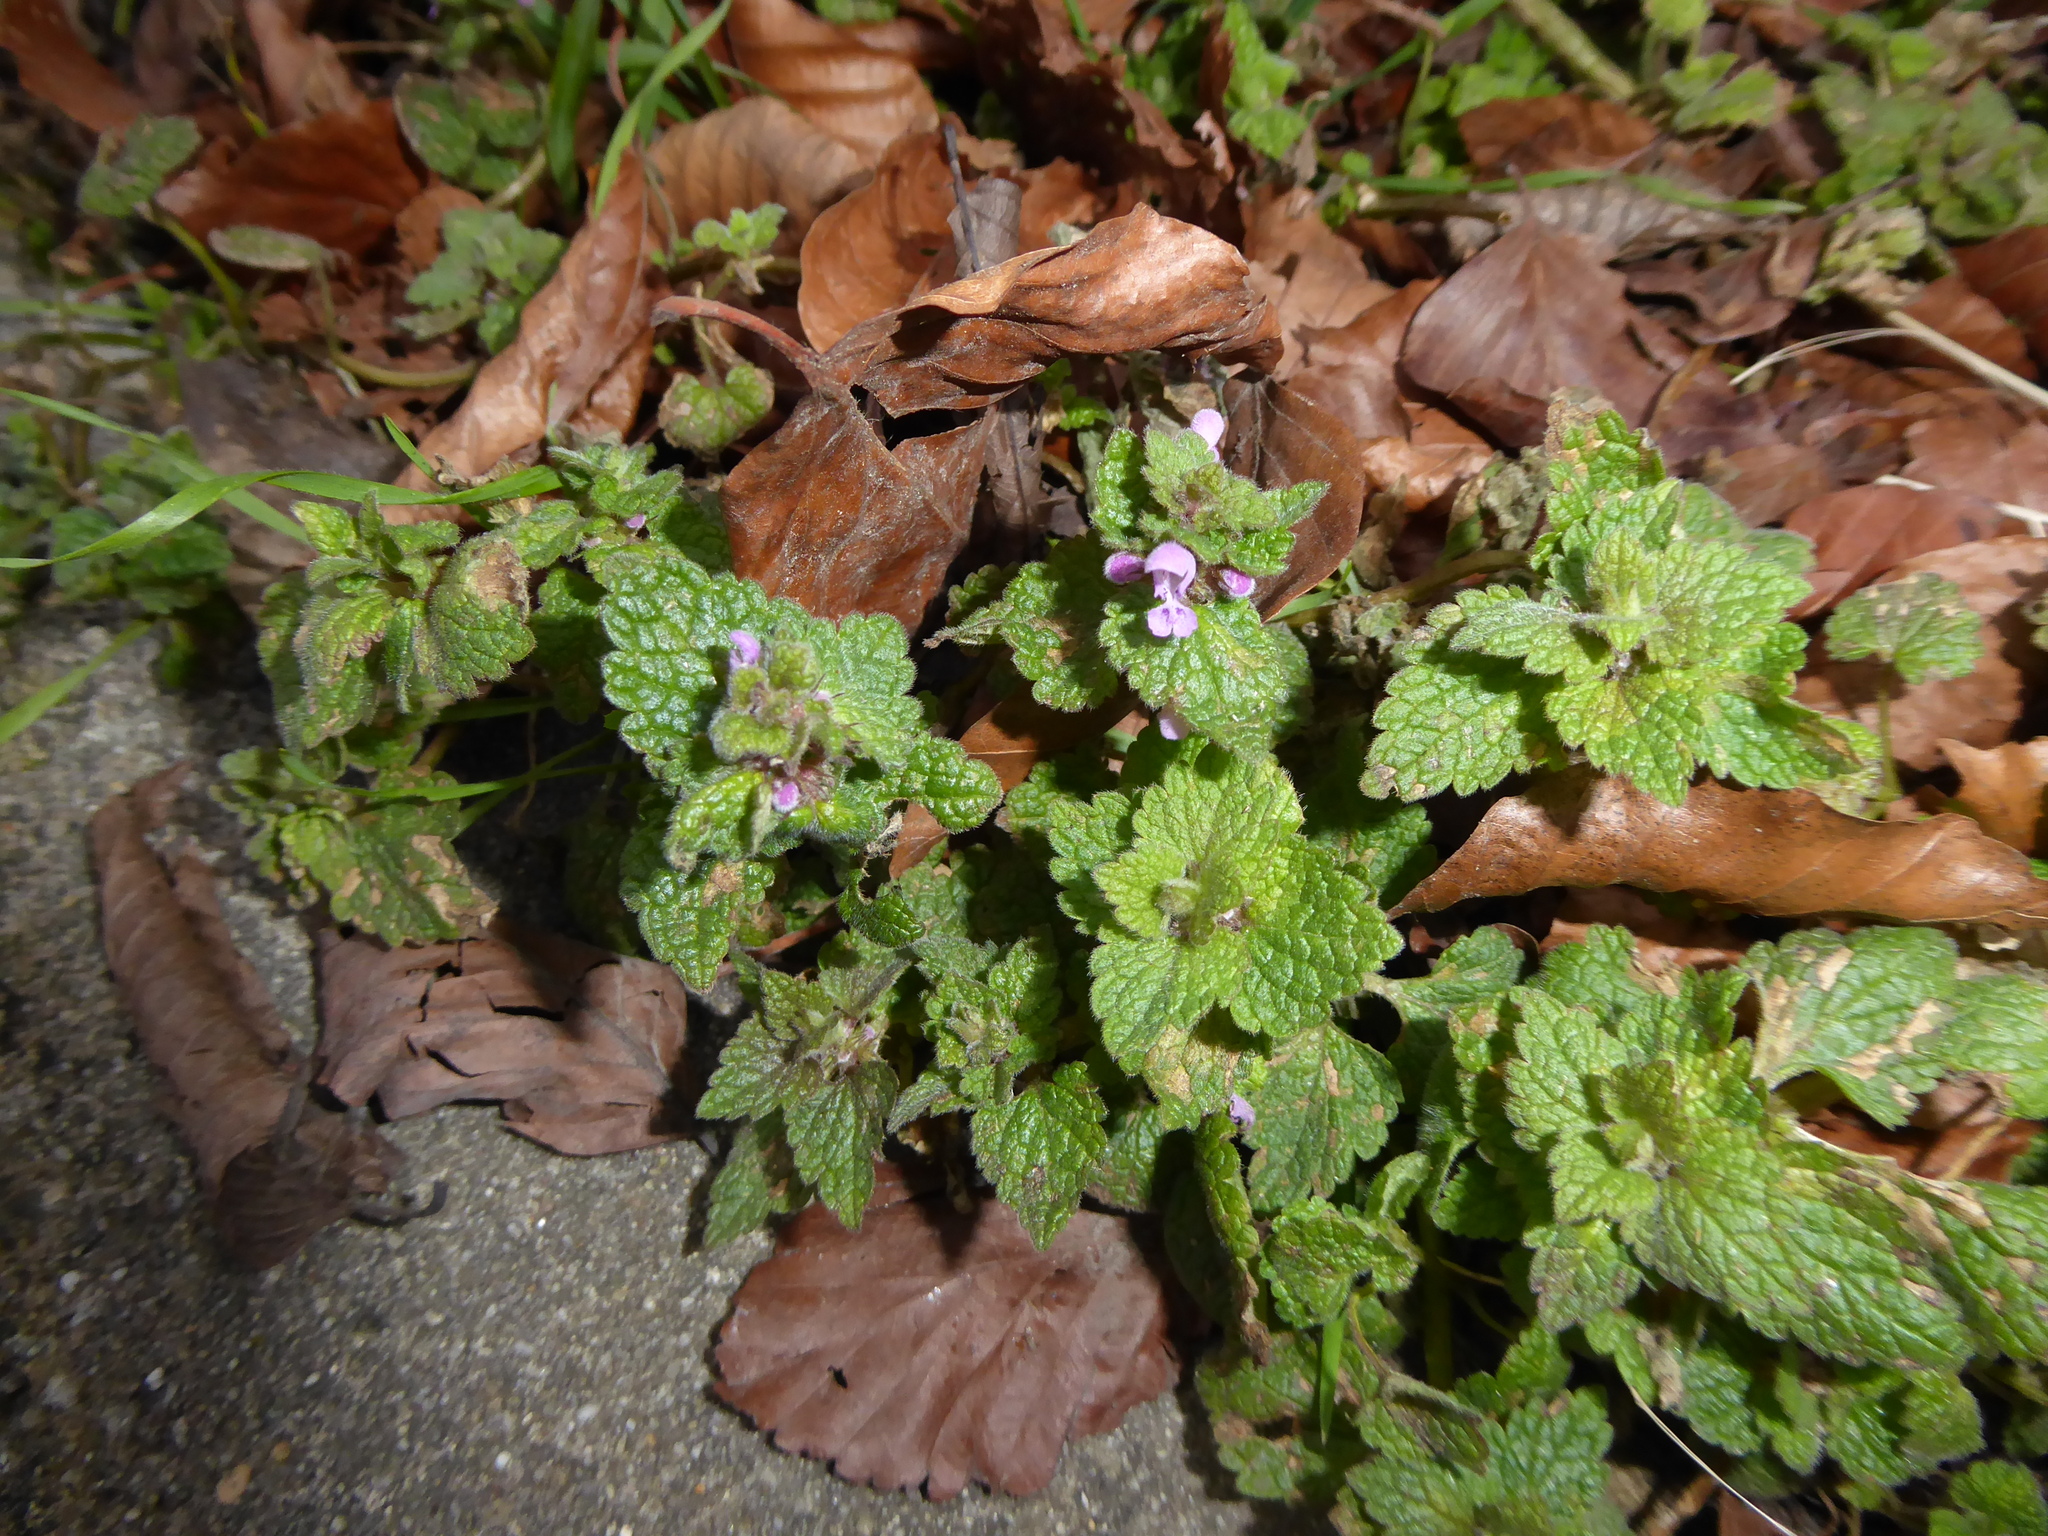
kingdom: Plantae
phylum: Tracheophyta
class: Magnoliopsida
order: Lamiales
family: Lamiaceae
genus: Lamium
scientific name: Lamium purpureum
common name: Red dead-nettle
